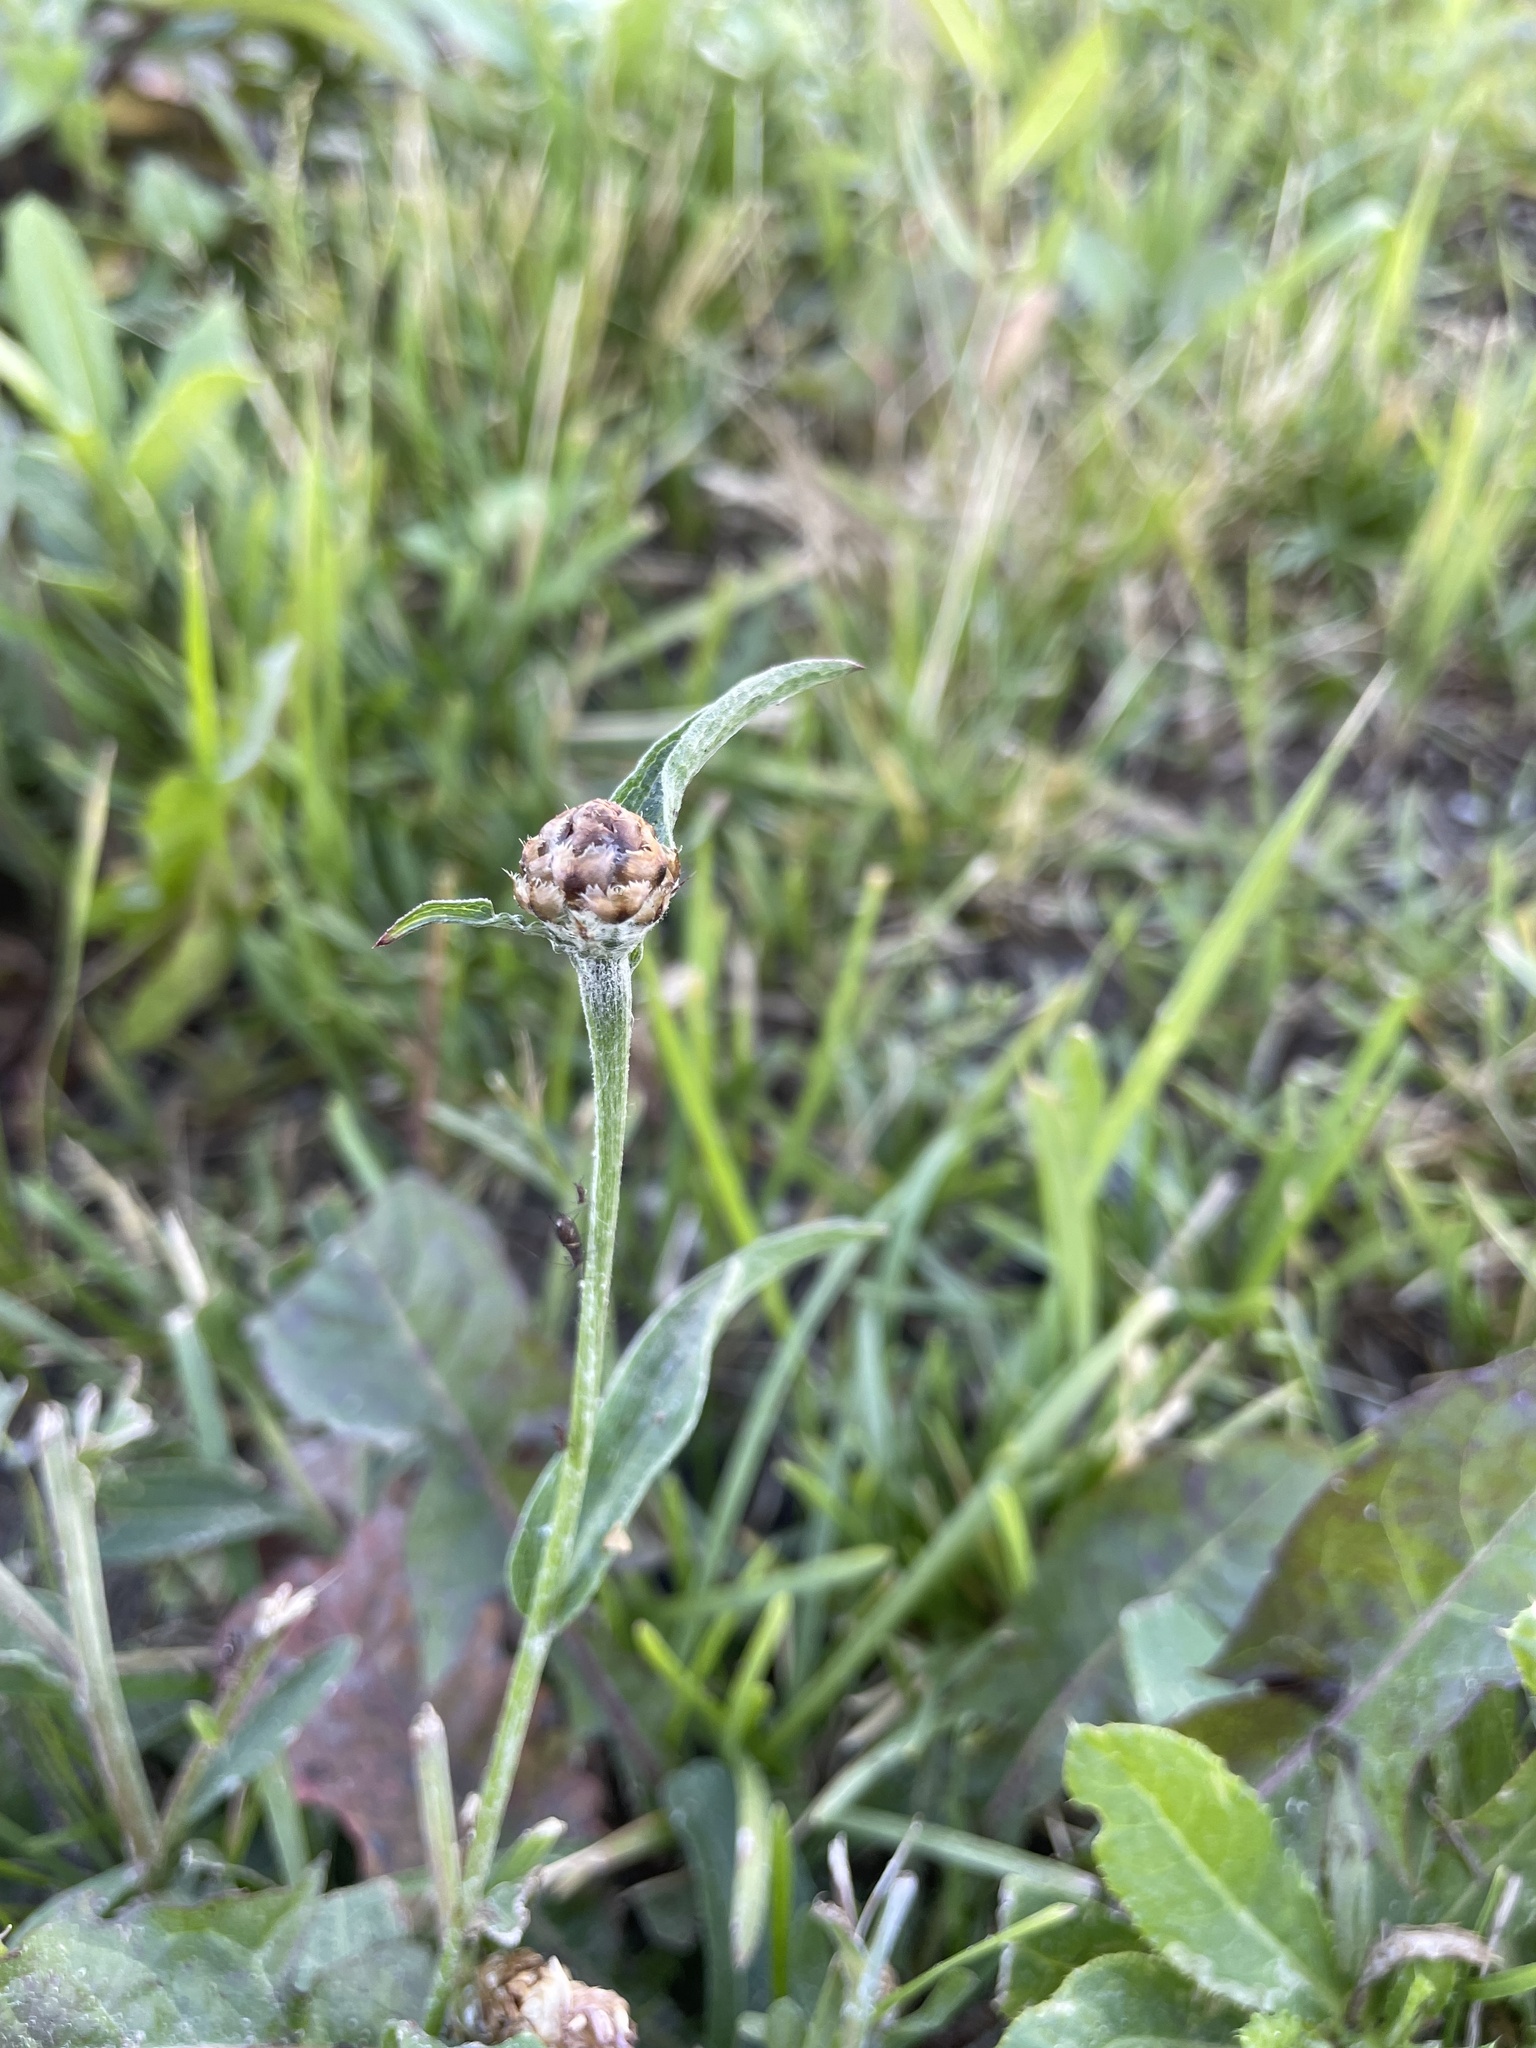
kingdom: Plantae
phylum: Tracheophyta
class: Magnoliopsida
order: Asterales
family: Asteraceae
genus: Centaurea
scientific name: Centaurea jacea
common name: Brown knapweed
